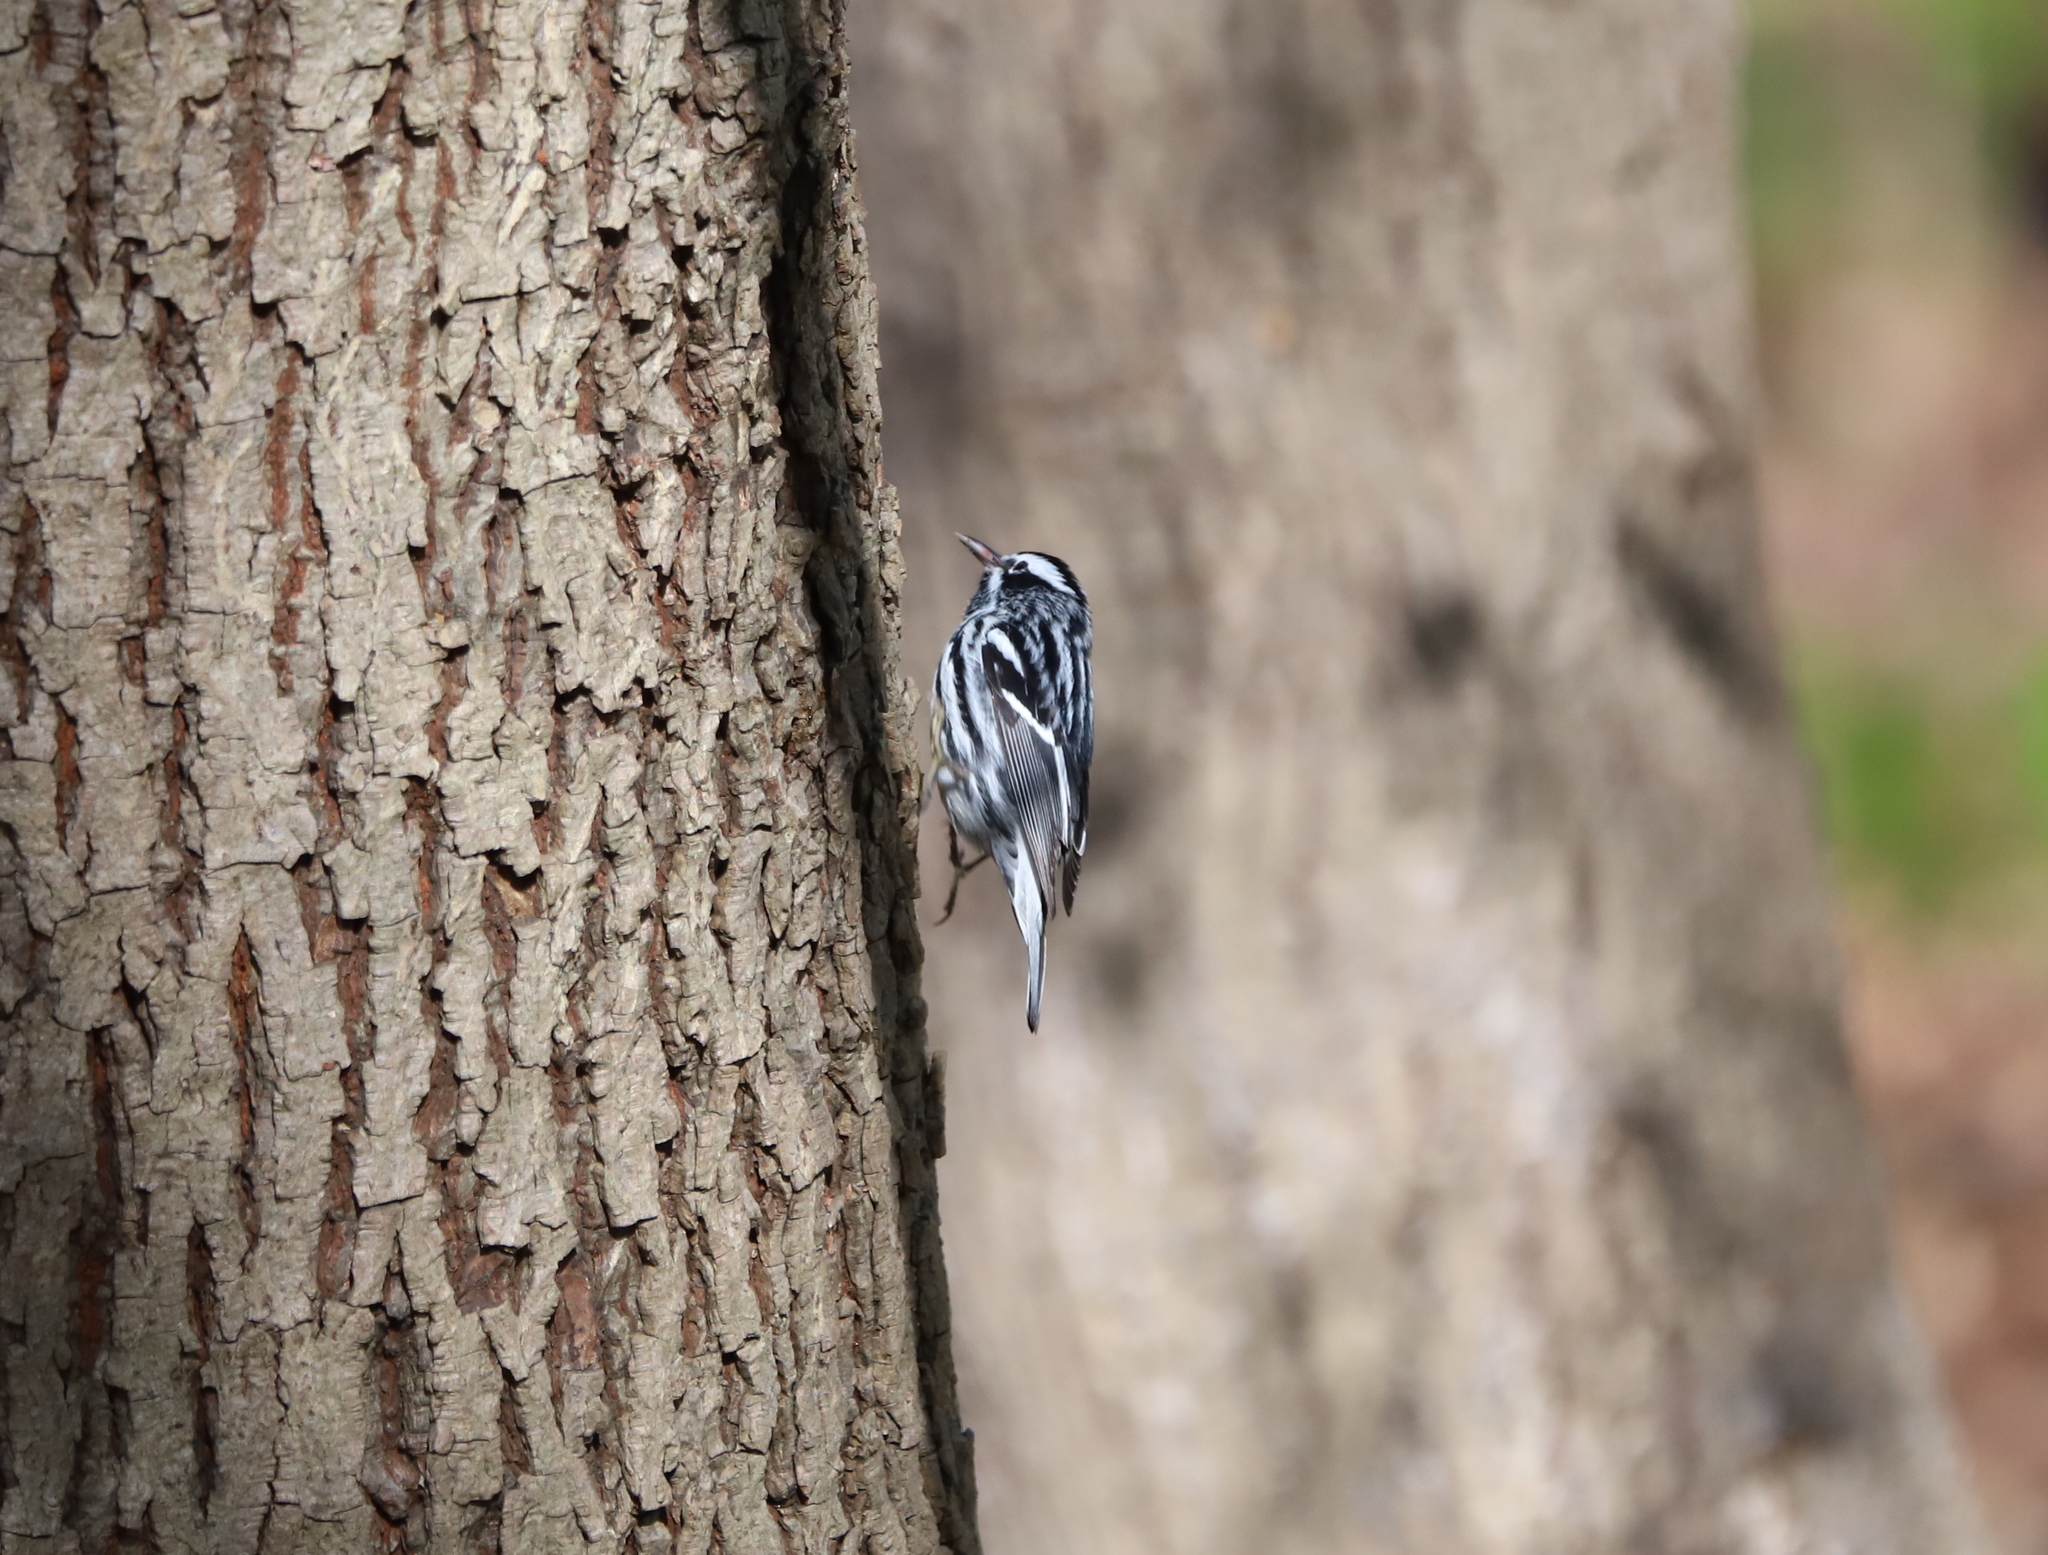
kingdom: Animalia
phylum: Chordata
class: Aves
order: Passeriformes
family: Parulidae
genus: Mniotilta
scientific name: Mniotilta varia
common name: Black-and-white warbler
